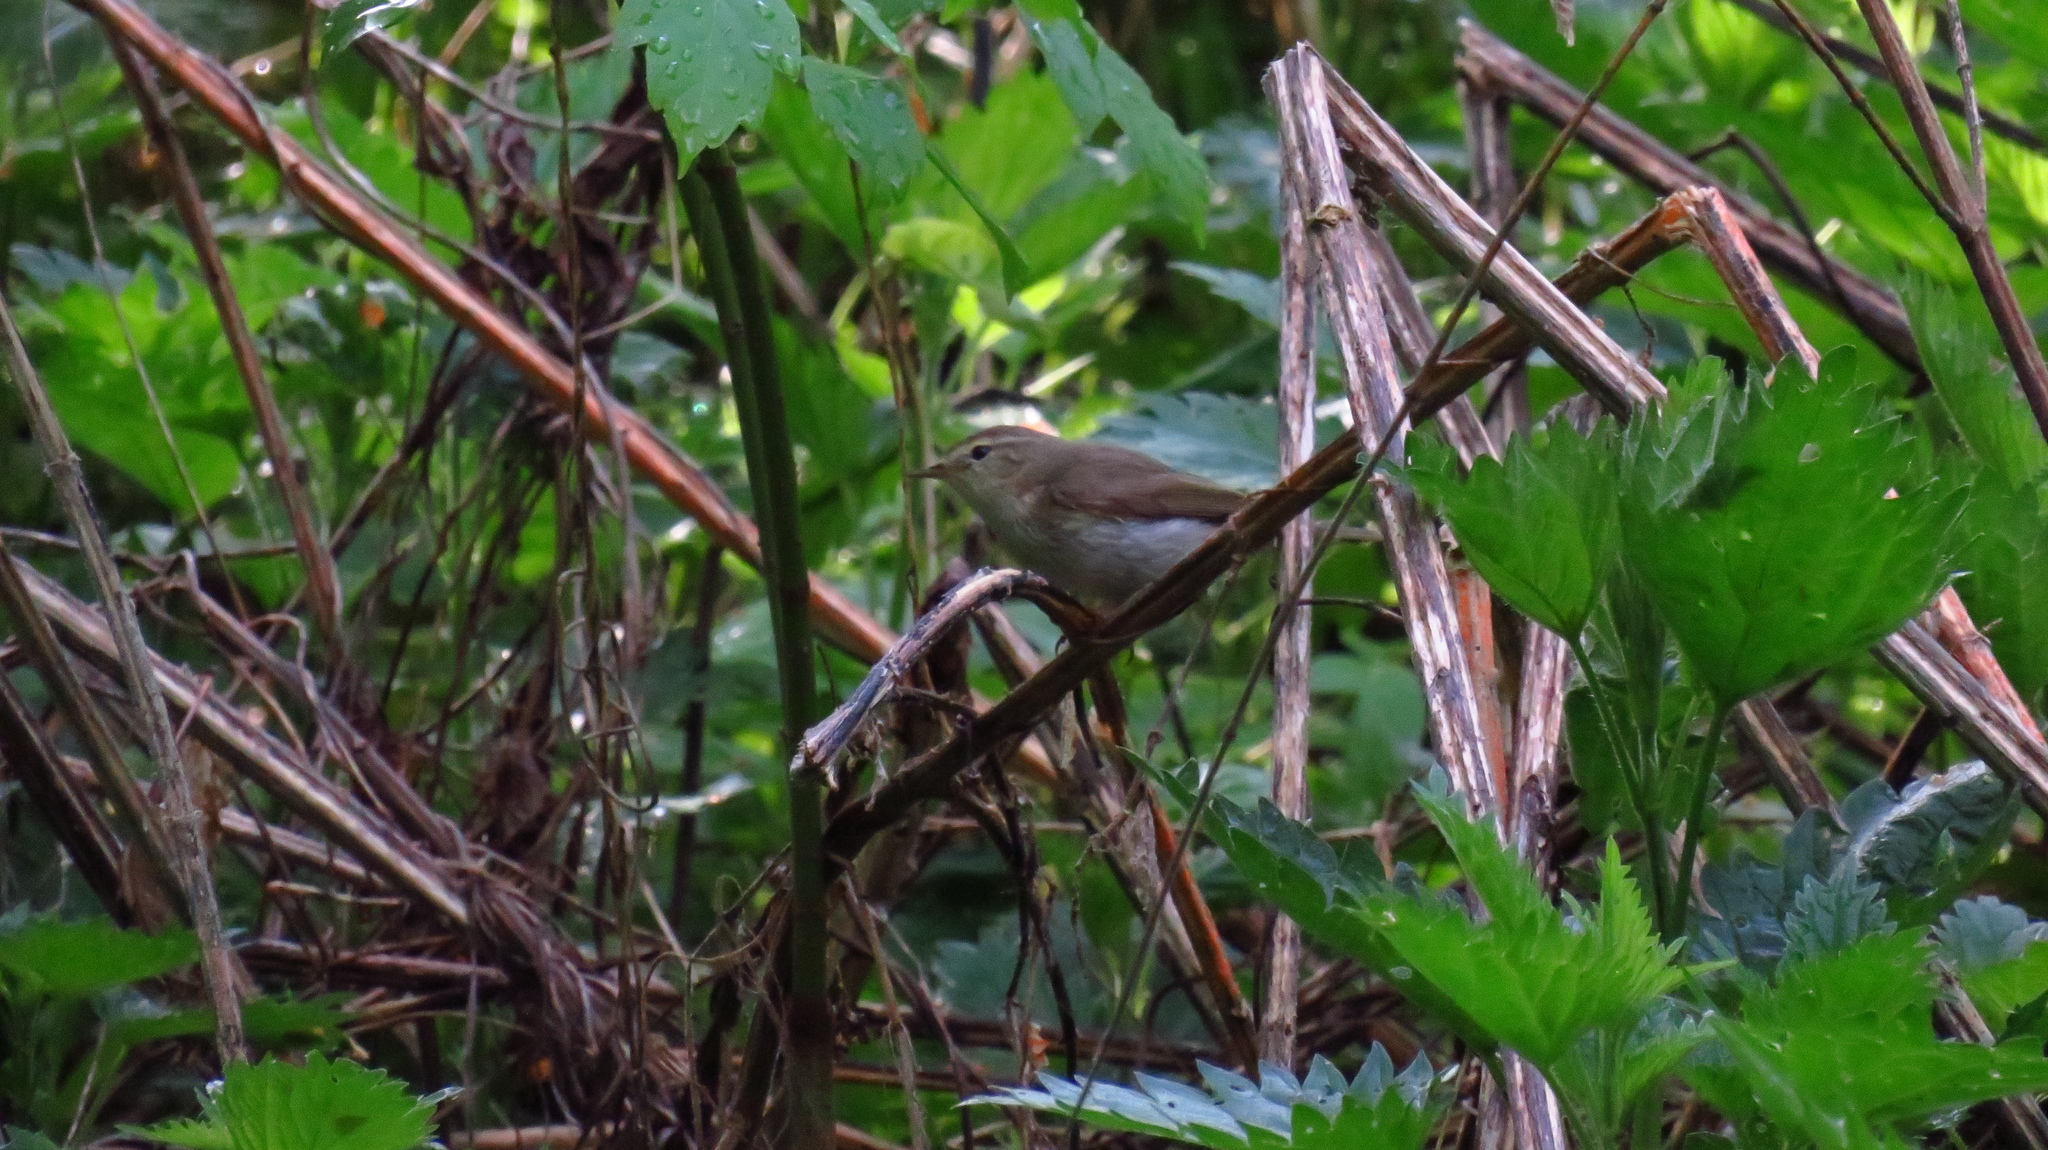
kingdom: Animalia
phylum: Chordata
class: Aves
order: Passeriformes
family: Phylloscopidae
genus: Phylloscopus
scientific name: Phylloscopus trochilus
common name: Willow warbler
